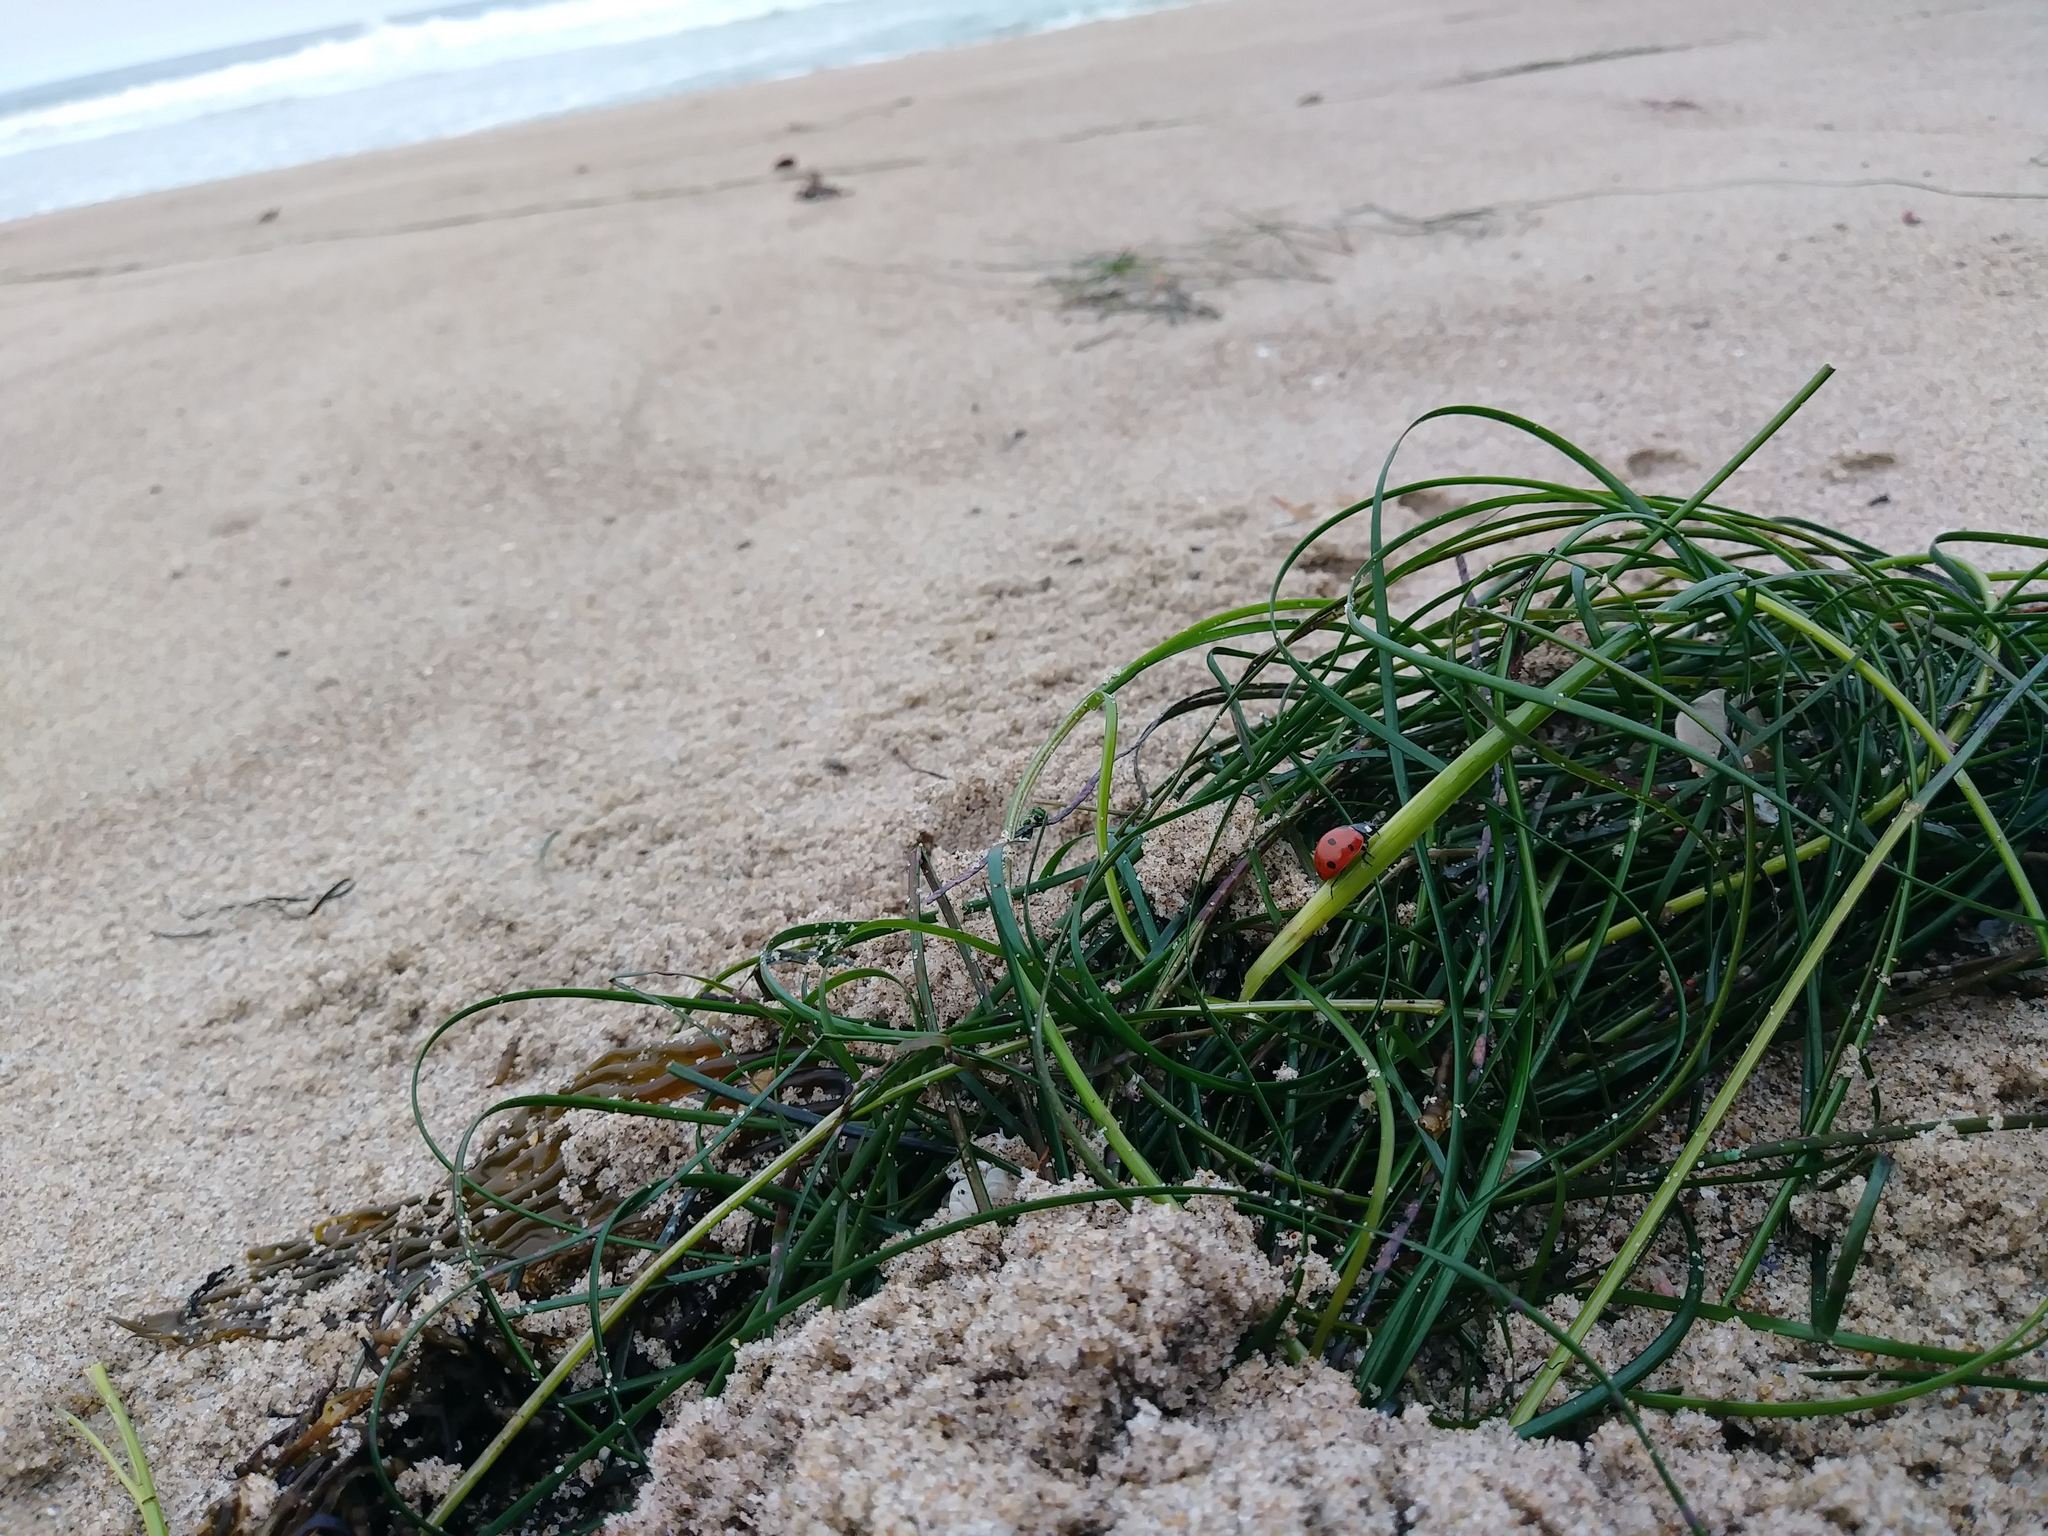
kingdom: Animalia
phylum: Arthropoda
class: Insecta
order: Coleoptera
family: Coccinellidae
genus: Coccinella
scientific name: Coccinella septempunctata
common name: Sevenspotted lady beetle
